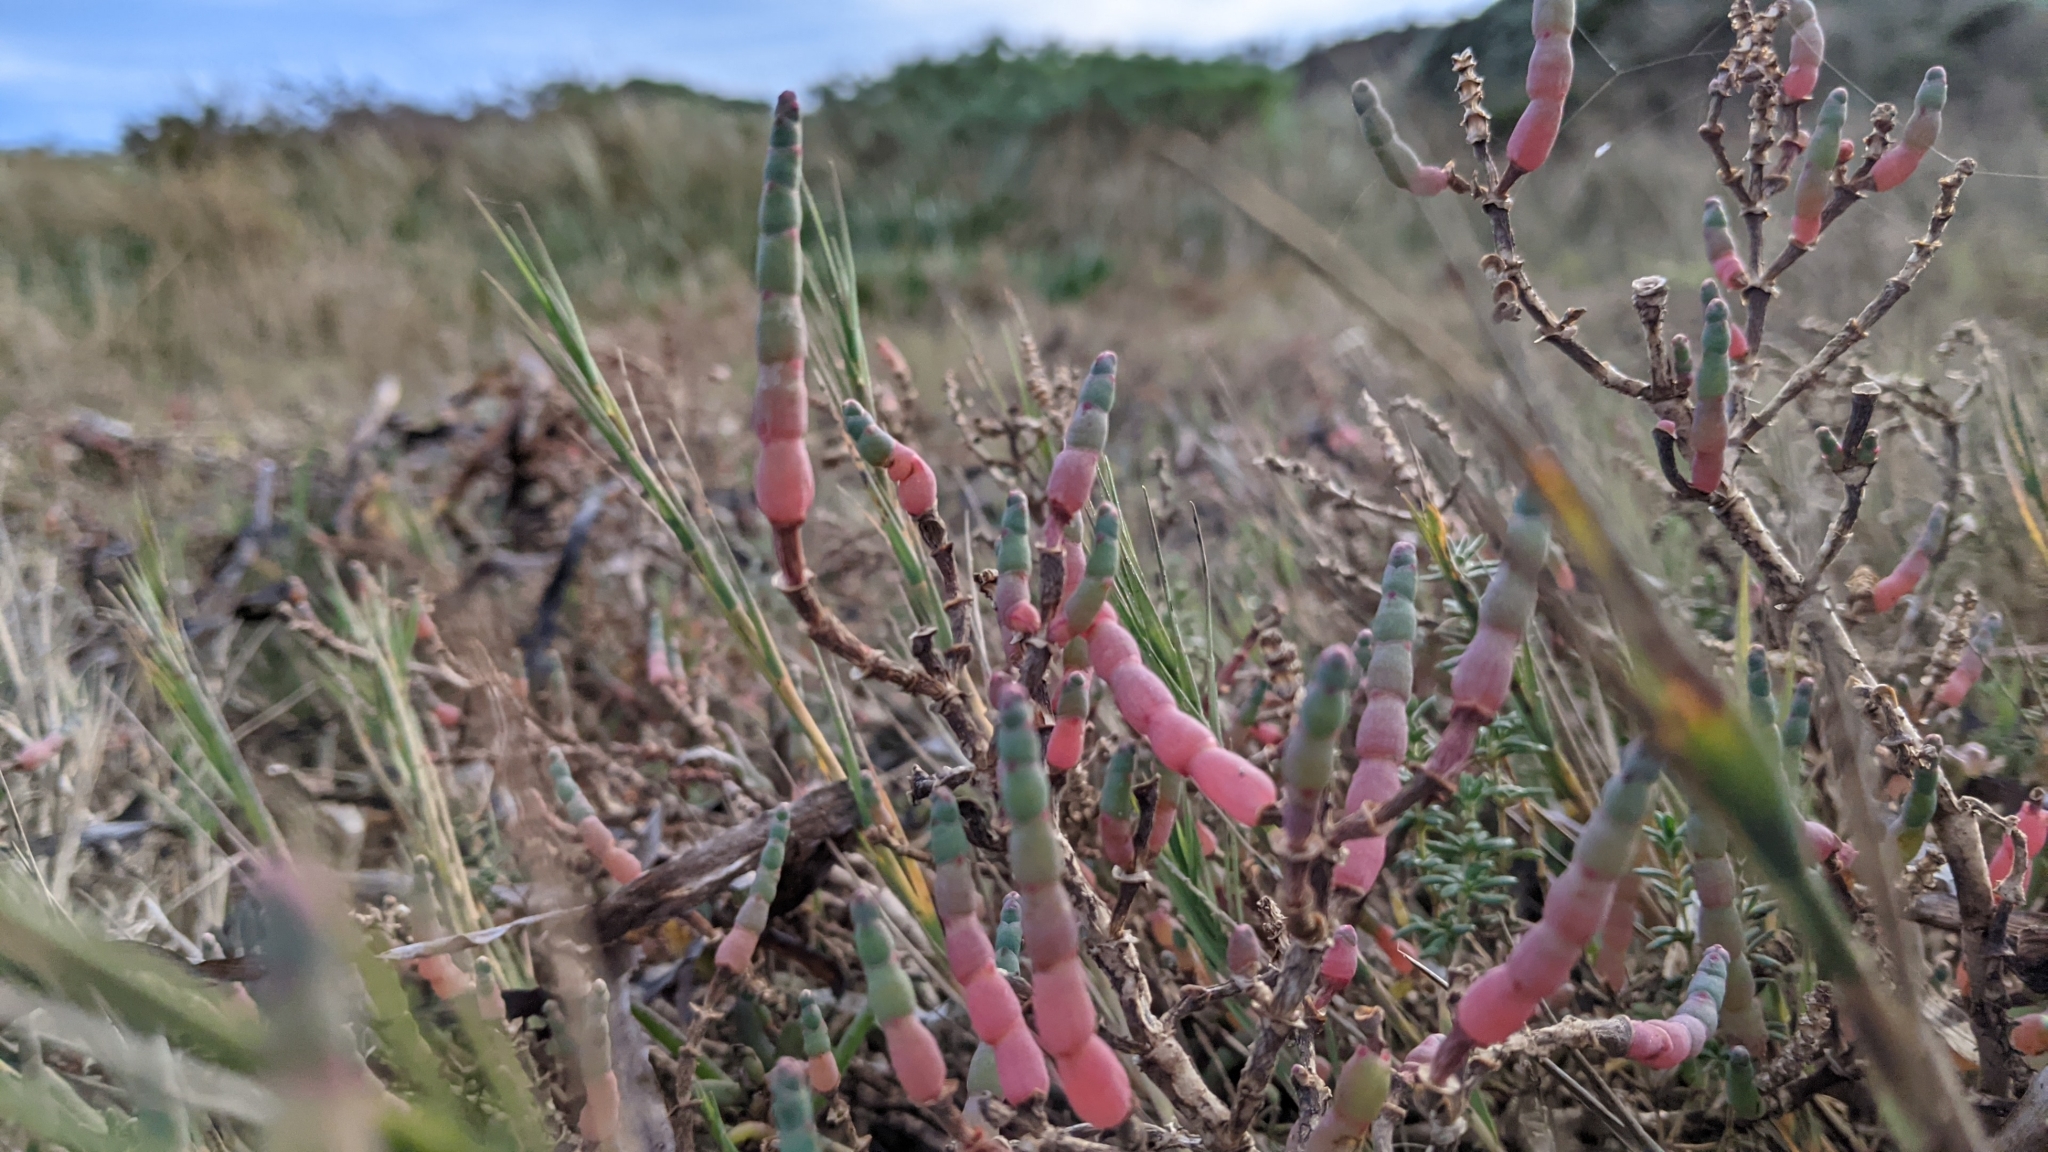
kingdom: Plantae
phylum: Tracheophyta
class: Magnoliopsida
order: Caryophyllales
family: Amaranthaceae
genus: Salicornia
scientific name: Salicornia pacifica
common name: Pacific glasswort
